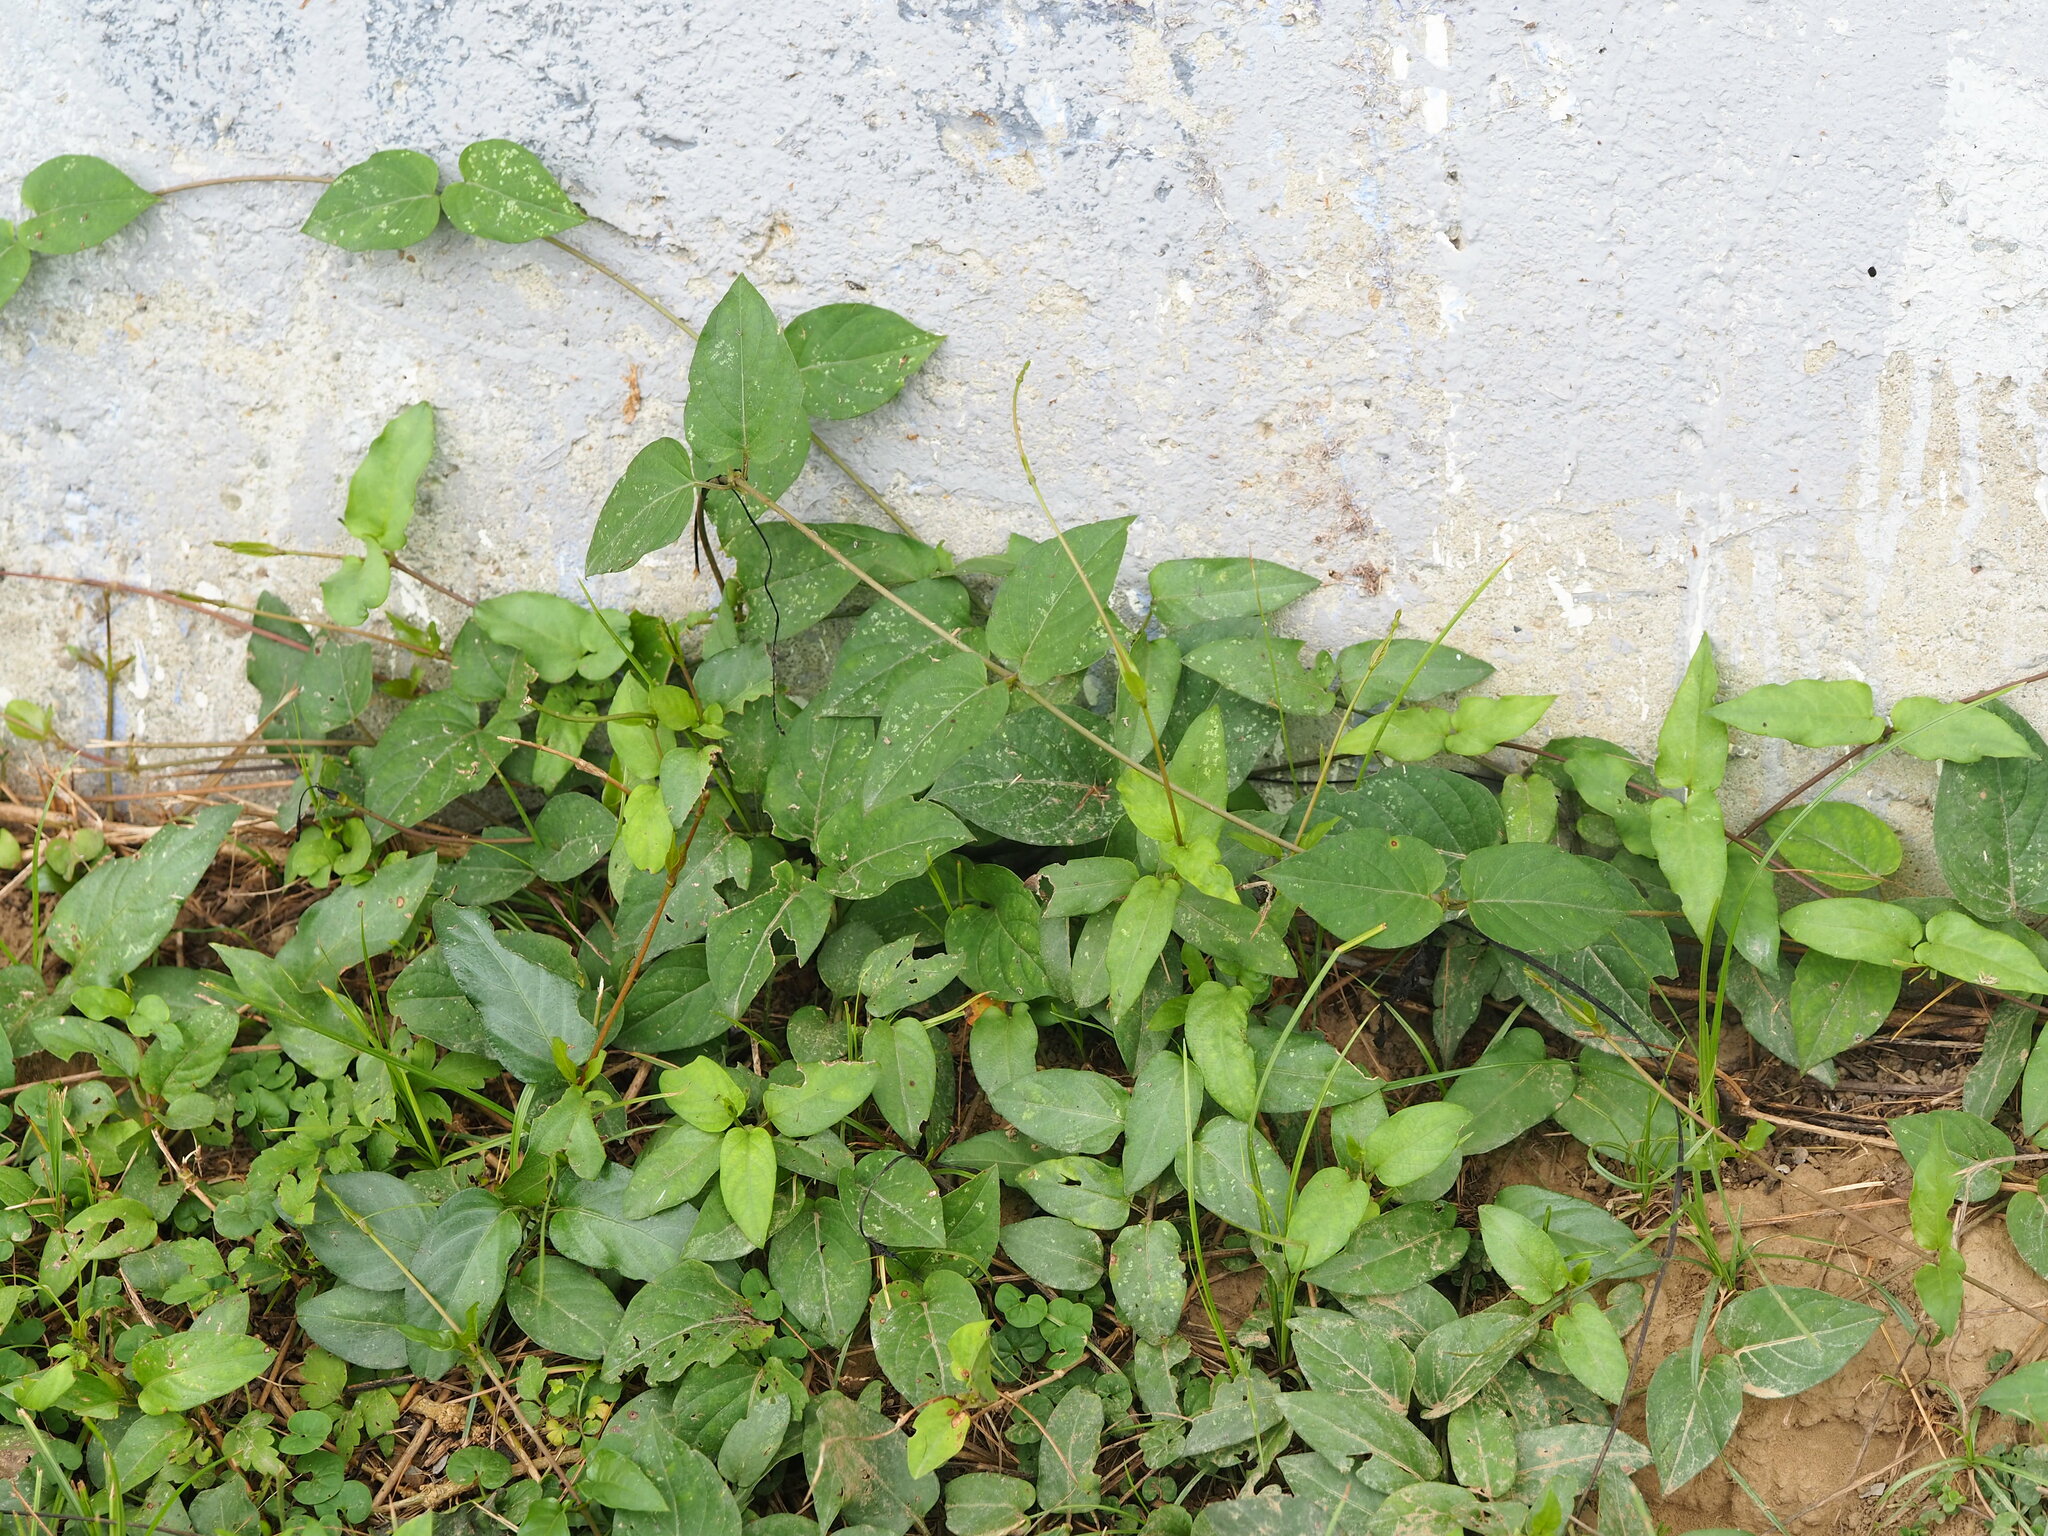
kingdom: Plantae
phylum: Tracheophyta
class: Magnoliopsida
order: Gentianales
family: Rubiaceae
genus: Paederia
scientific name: Paederia foetida
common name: Stinkvine
